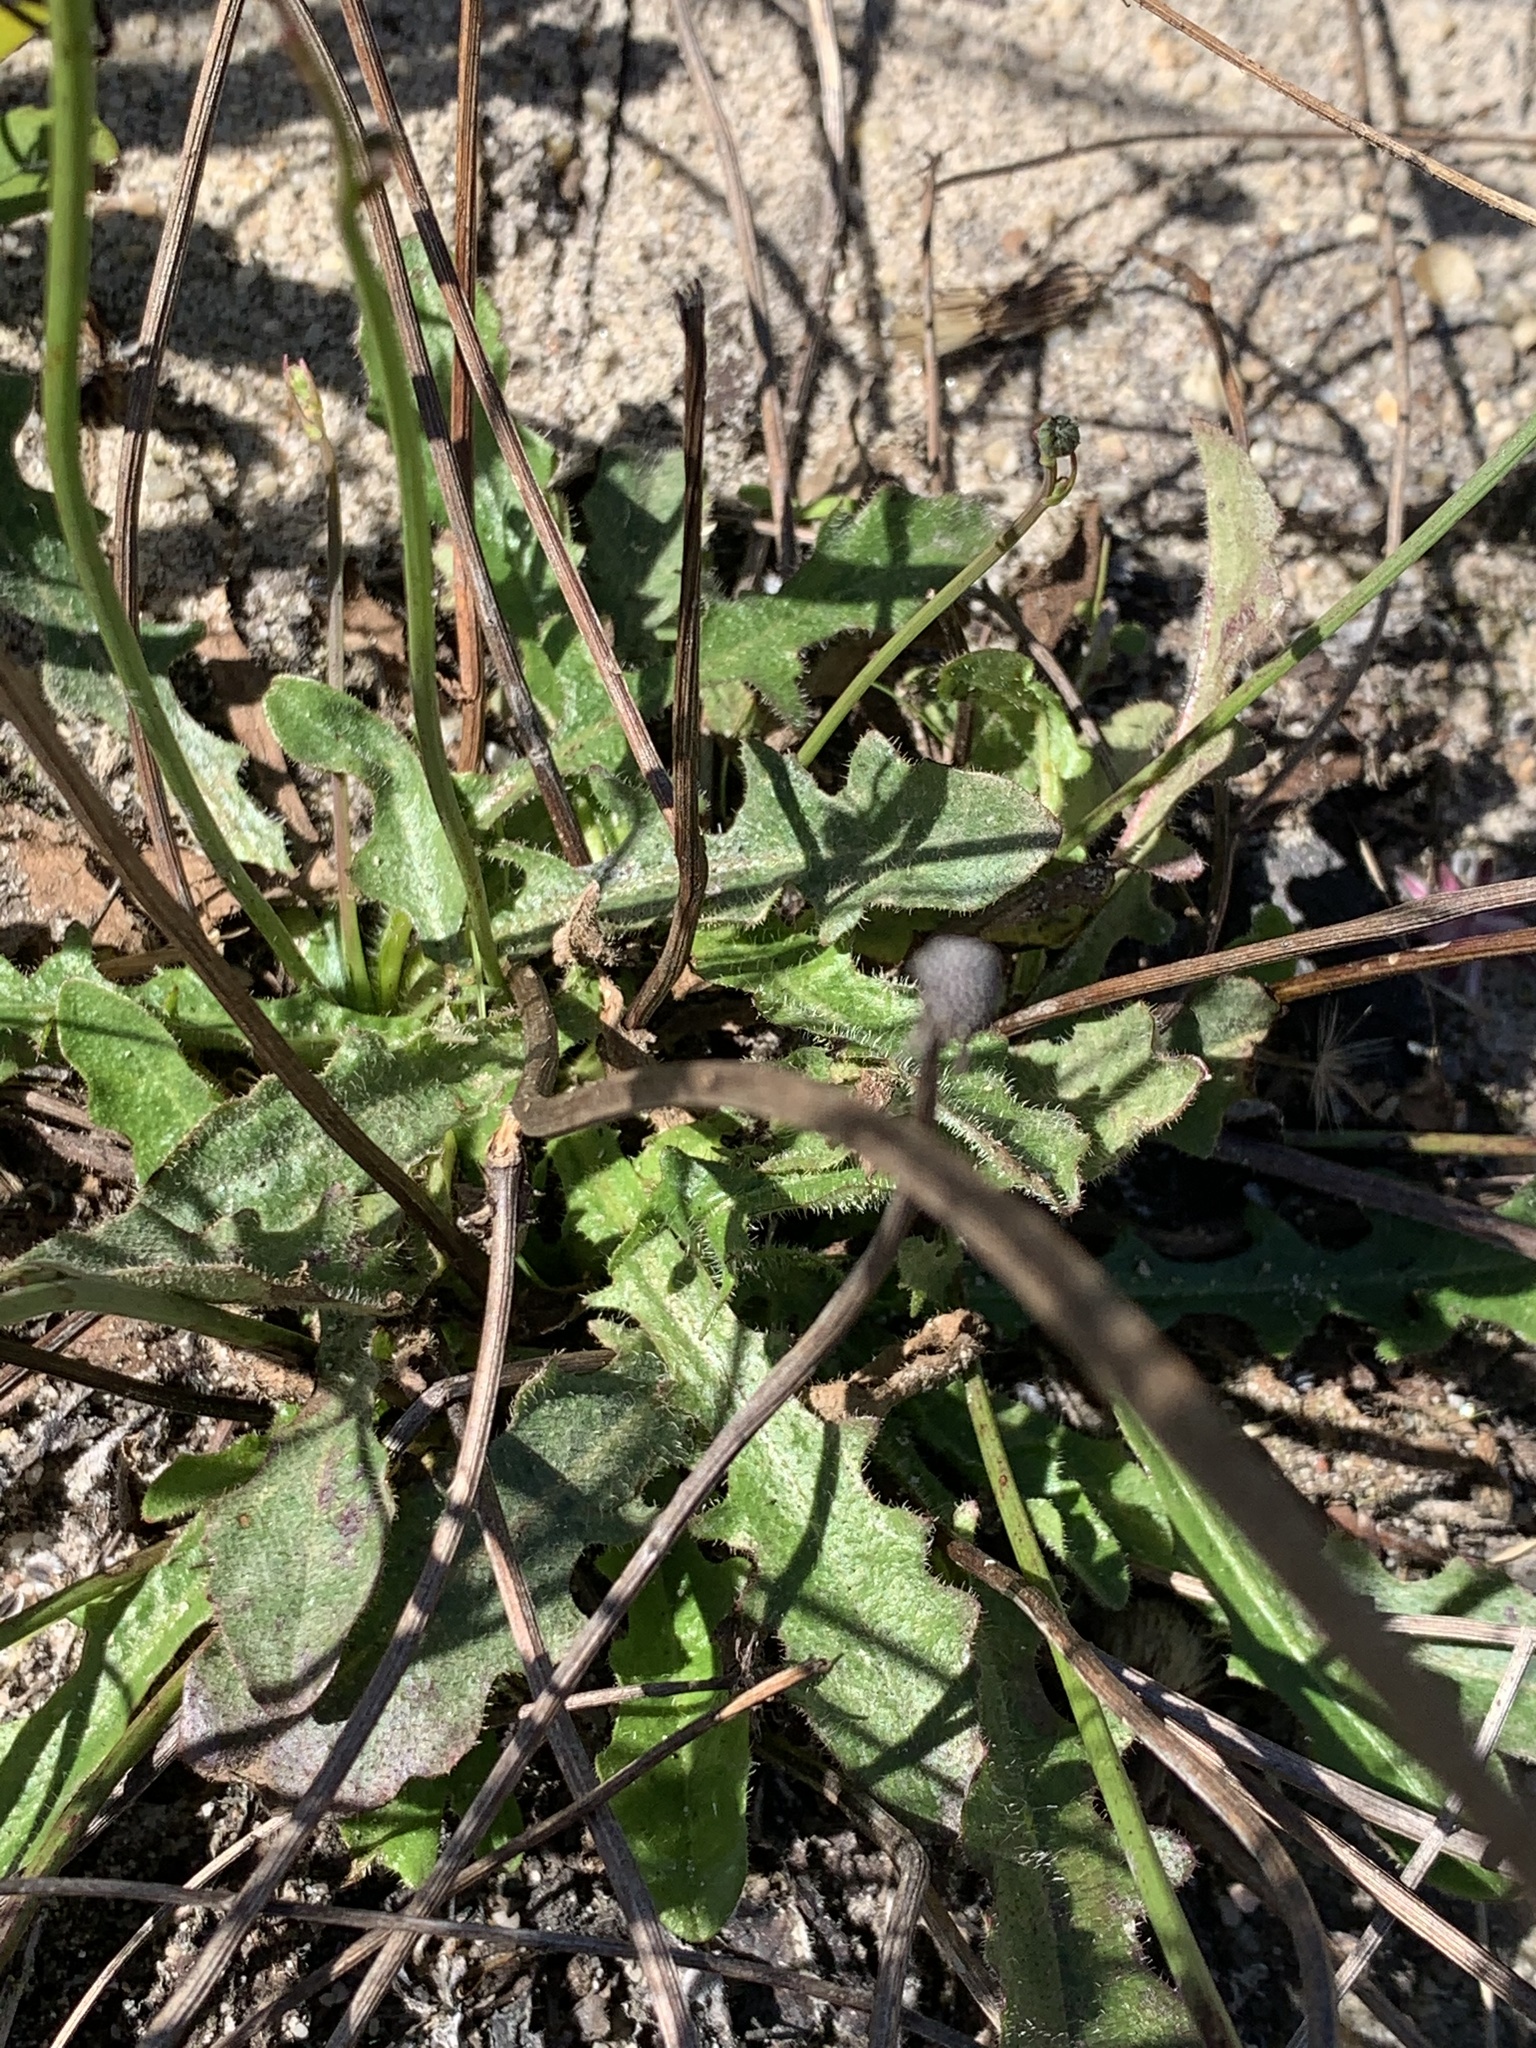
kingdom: Plantae
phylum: Tracheophyta
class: Magnoliopsida
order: Asterales
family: Asteraceae
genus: Hypochaeris
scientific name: Hypochaeris radicata
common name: Flatweed
